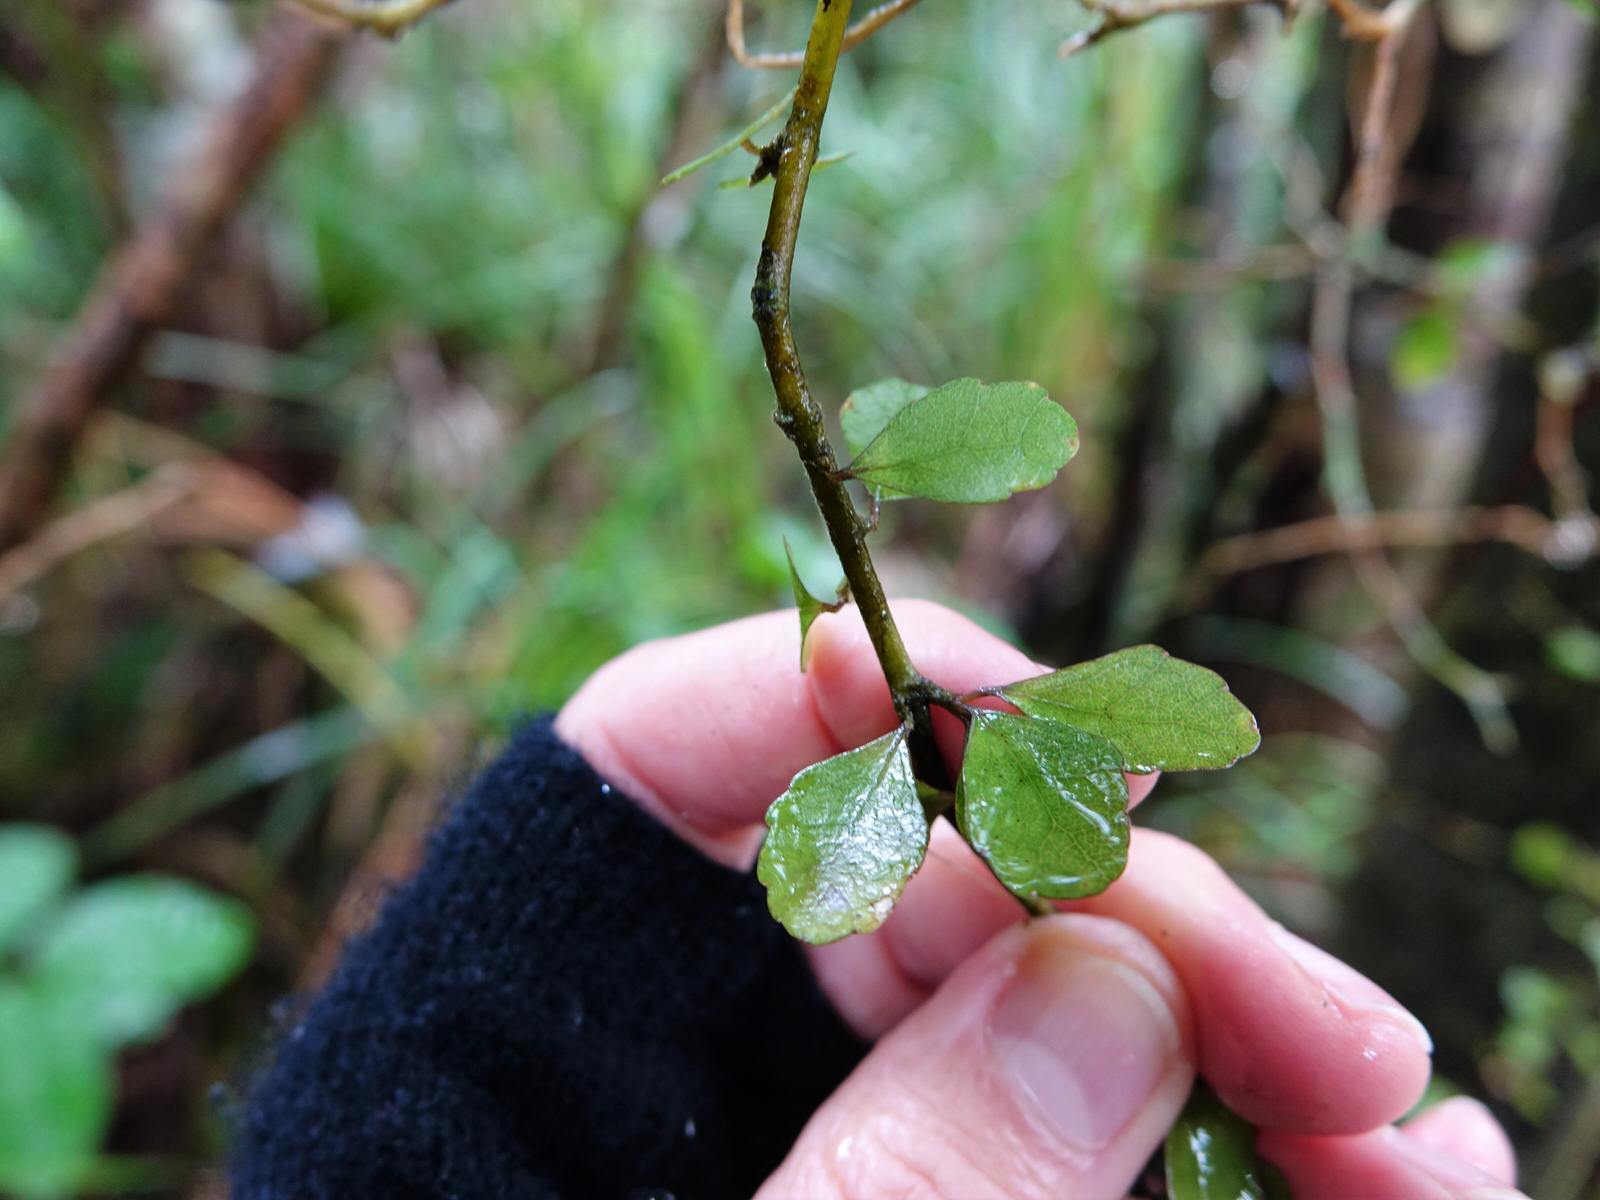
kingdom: Plantae
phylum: Tracheophyta
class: Magnoliopsida
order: Malpighiales
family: Violaceae
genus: Melicytus
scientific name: Melicytus micranthus
